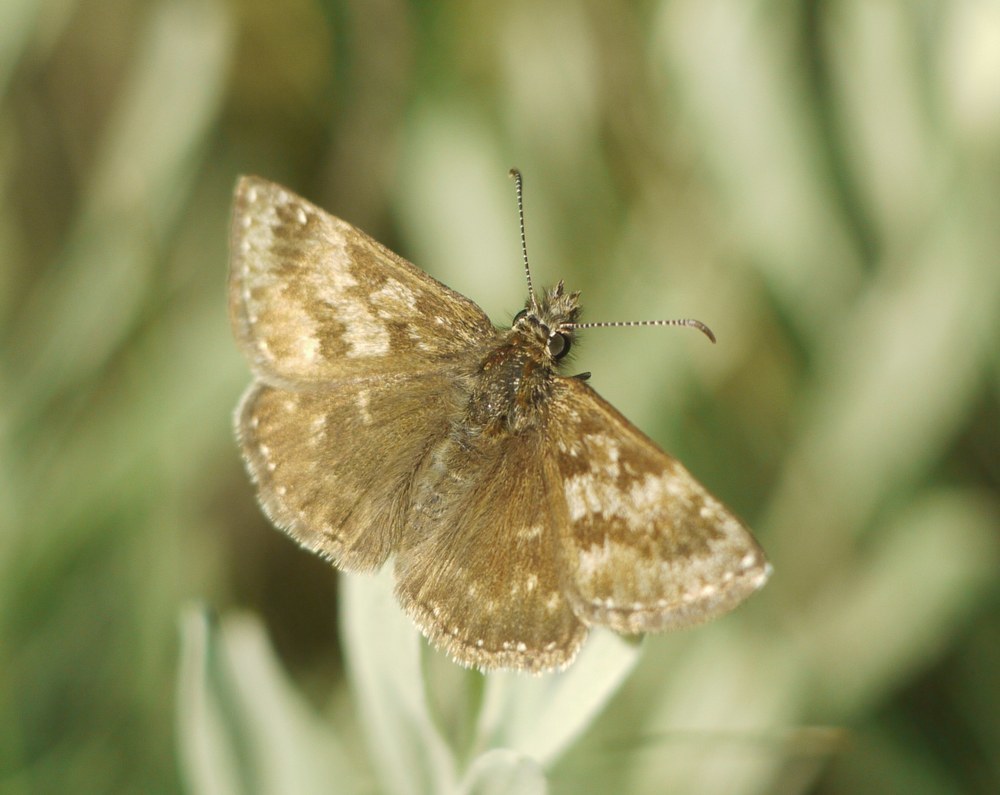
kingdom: Animalia
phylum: Arthropoda
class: Insecta
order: Lepidoptera
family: Hesperiidae
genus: Erynnis
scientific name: Erynnis tages
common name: Dingy skipper
